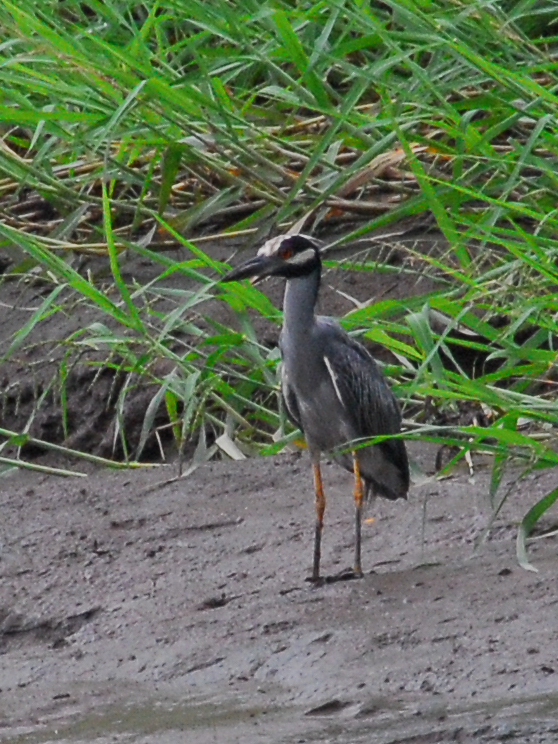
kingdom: Animalia
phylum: Chordata
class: Aves
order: Pelecaniformes
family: Ardeidae
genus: Nyctanassa
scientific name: Nyctanassa violacea
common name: Yellow-crowned night heron
